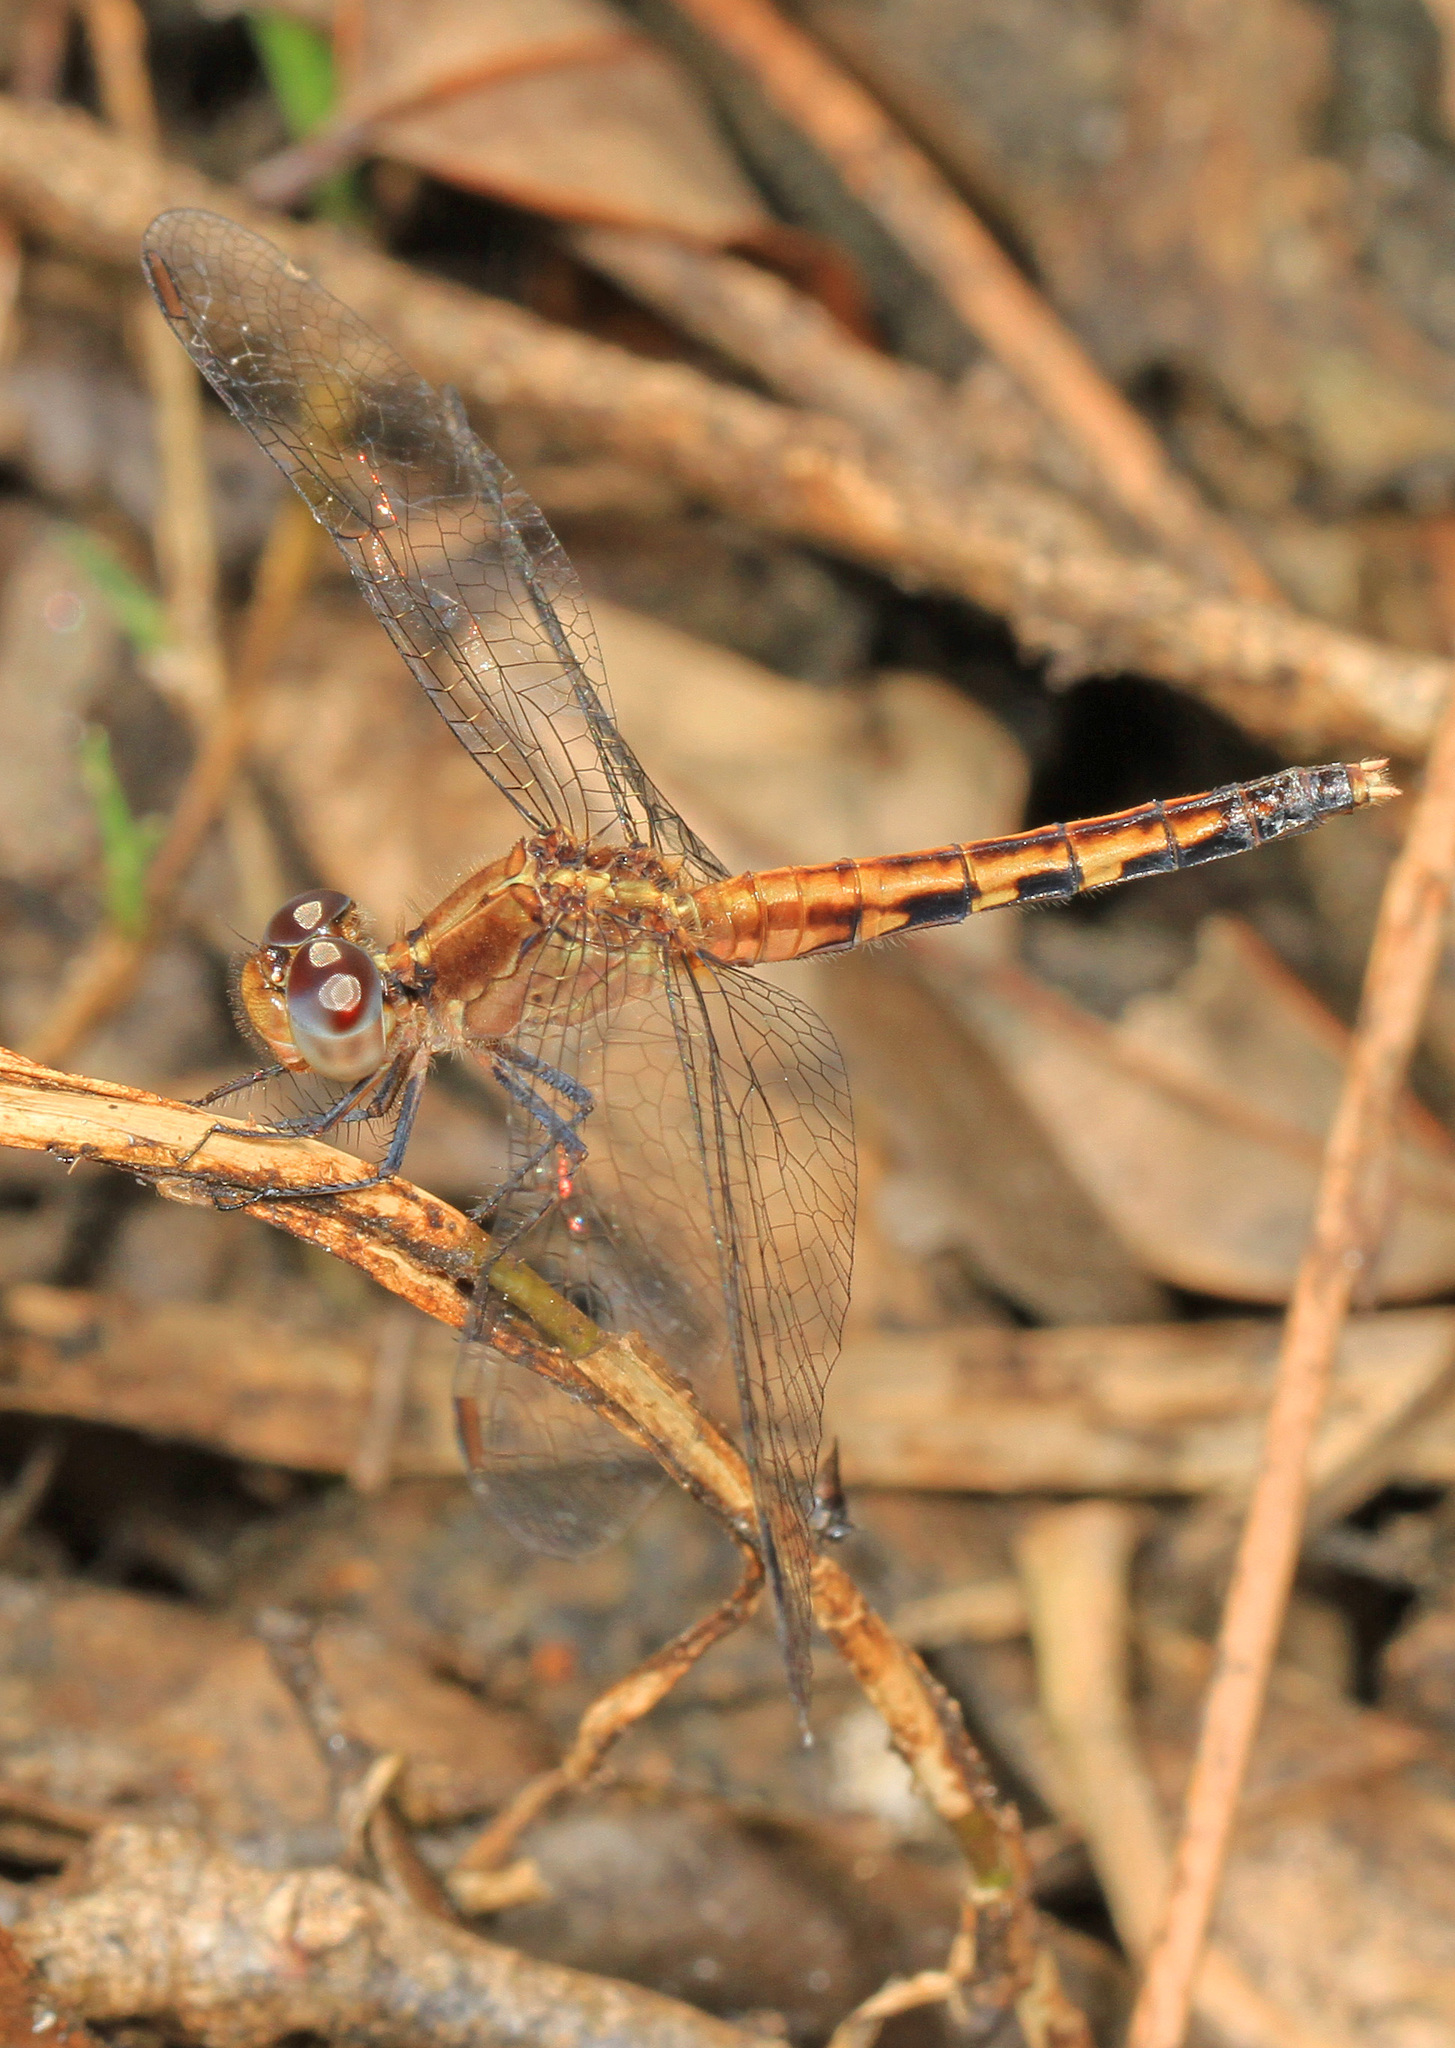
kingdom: Animalia
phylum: Arthropoda
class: Insecta
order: Odonata
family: Libellulidae
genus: Erythrodiplax
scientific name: Erythrodiplax minuscula
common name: Little blue dragonlet
